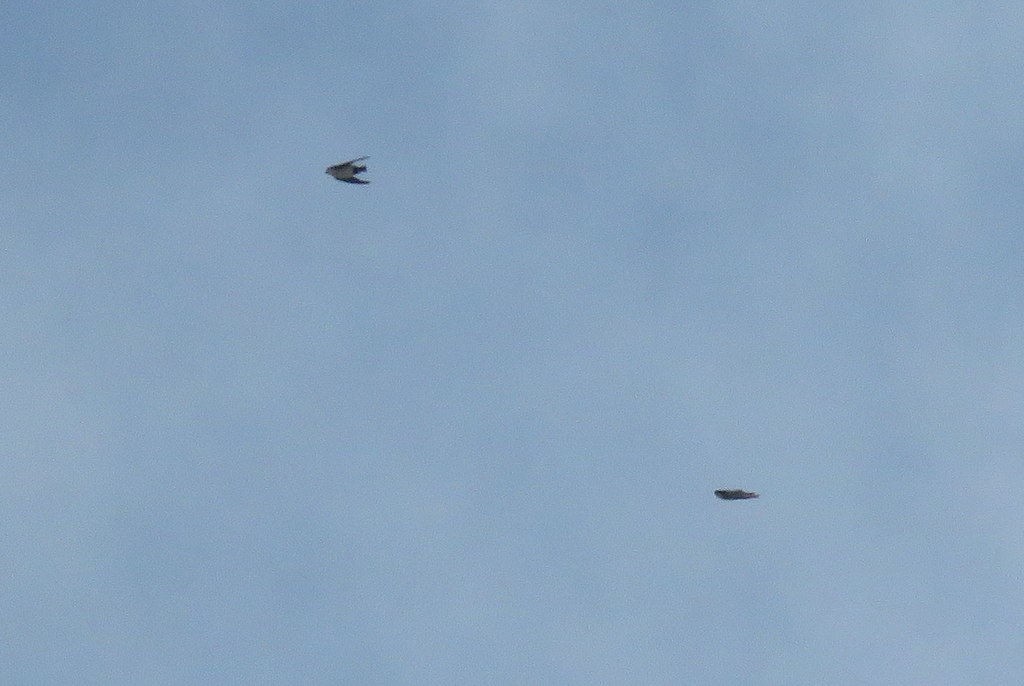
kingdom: Animalia
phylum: Chordata
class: Aves
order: Passeriformes
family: Hirundinidae
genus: Notiochelidon
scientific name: Notiochelidon cyanoleuca
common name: Blue-and-white swallow
